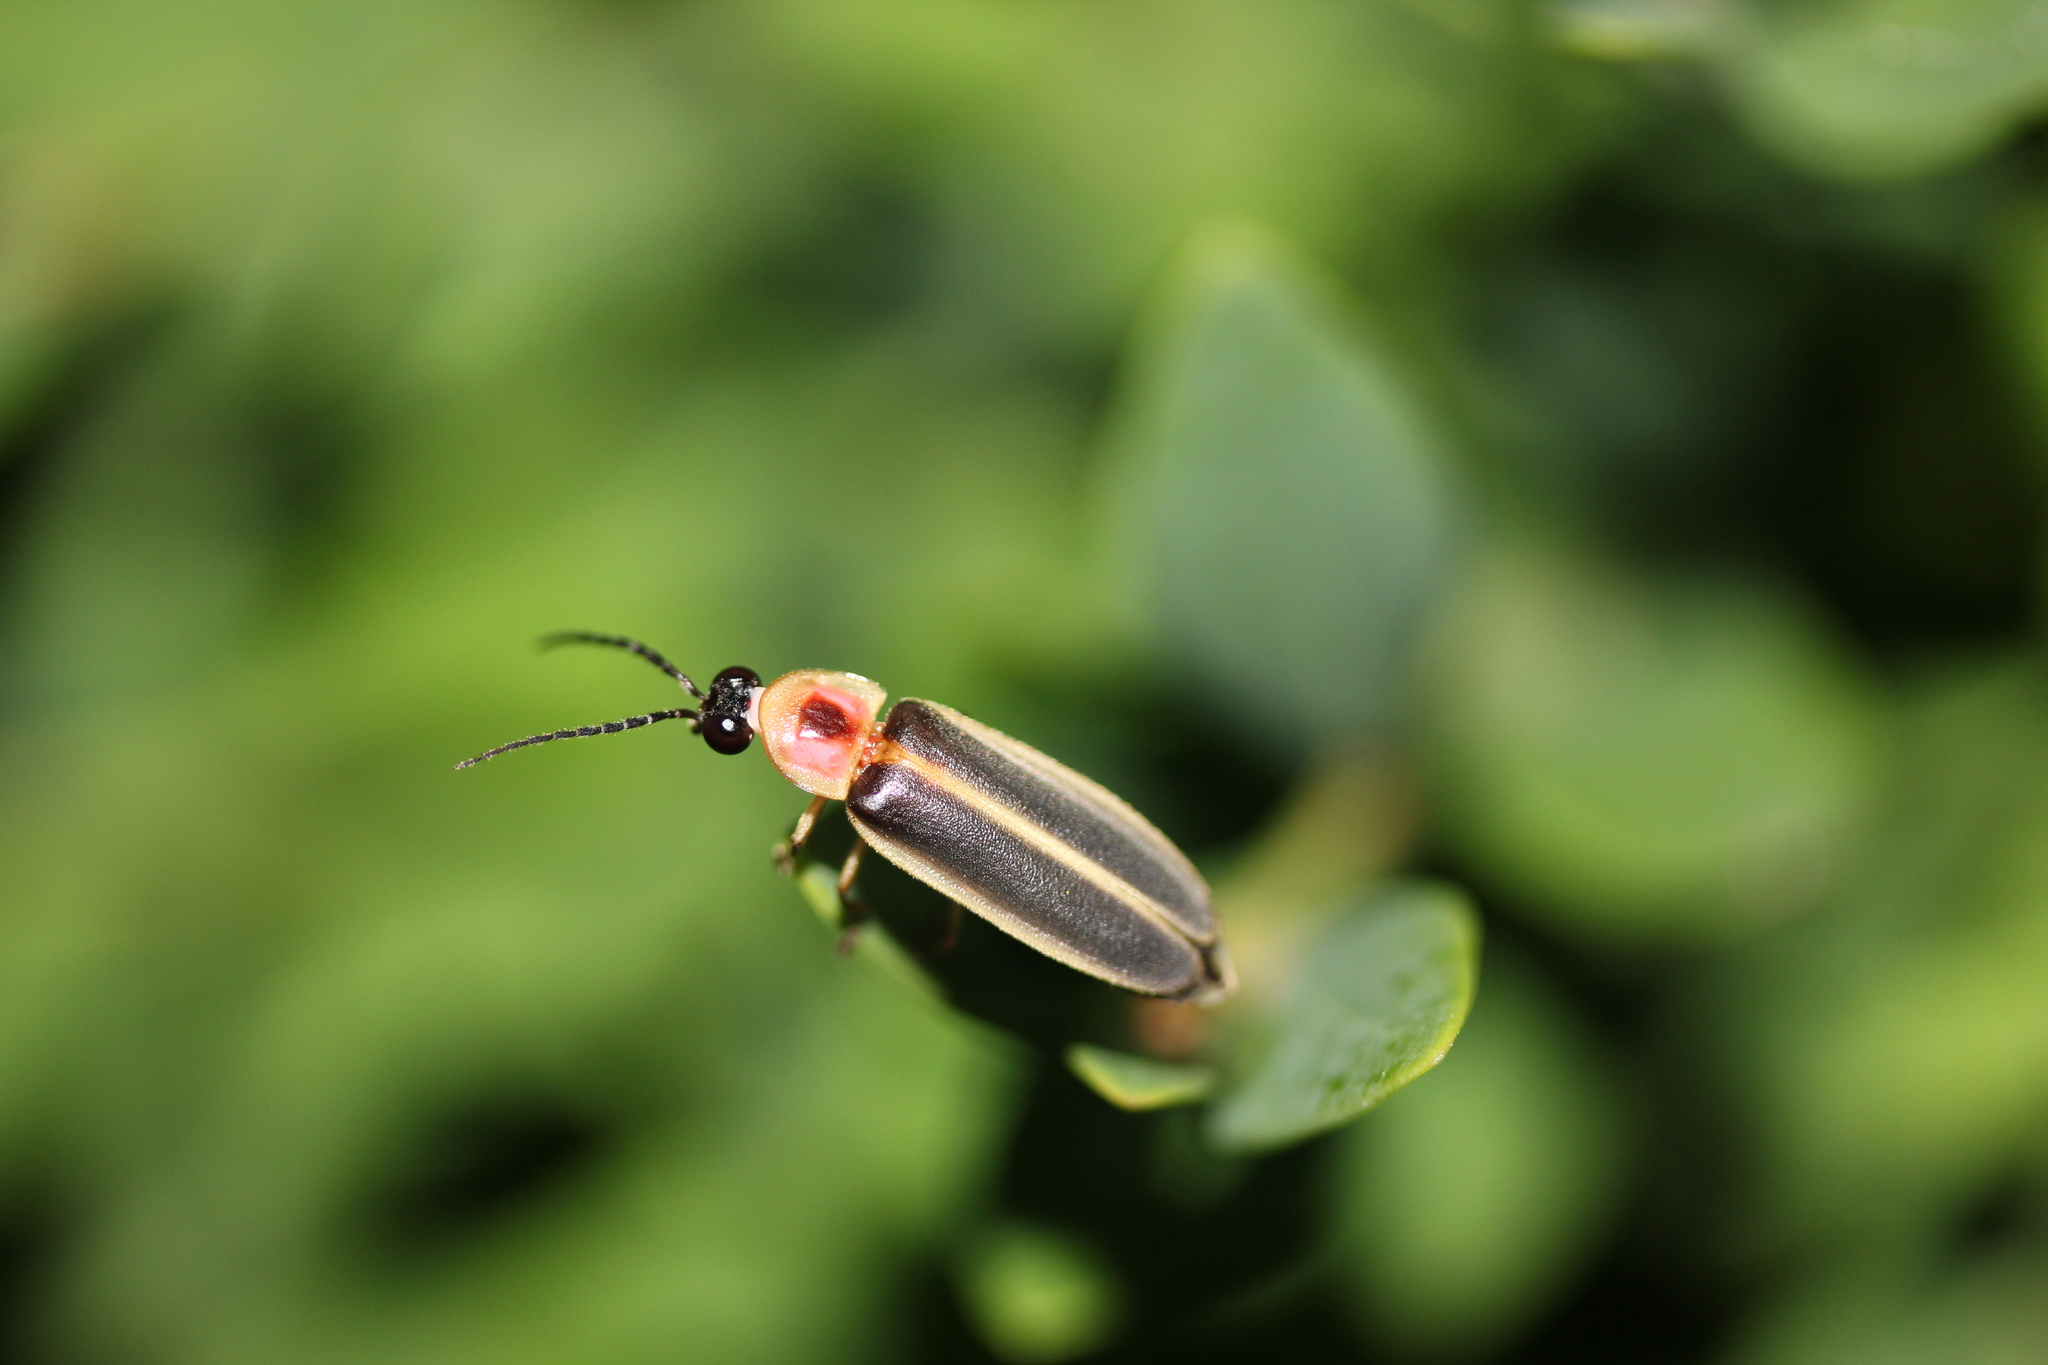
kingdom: Animalia
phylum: Arthropoda
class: Insecta
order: Coleoptera
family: Lampyridae
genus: Photinus
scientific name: Photinus pyralis
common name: Big dipper firefly
